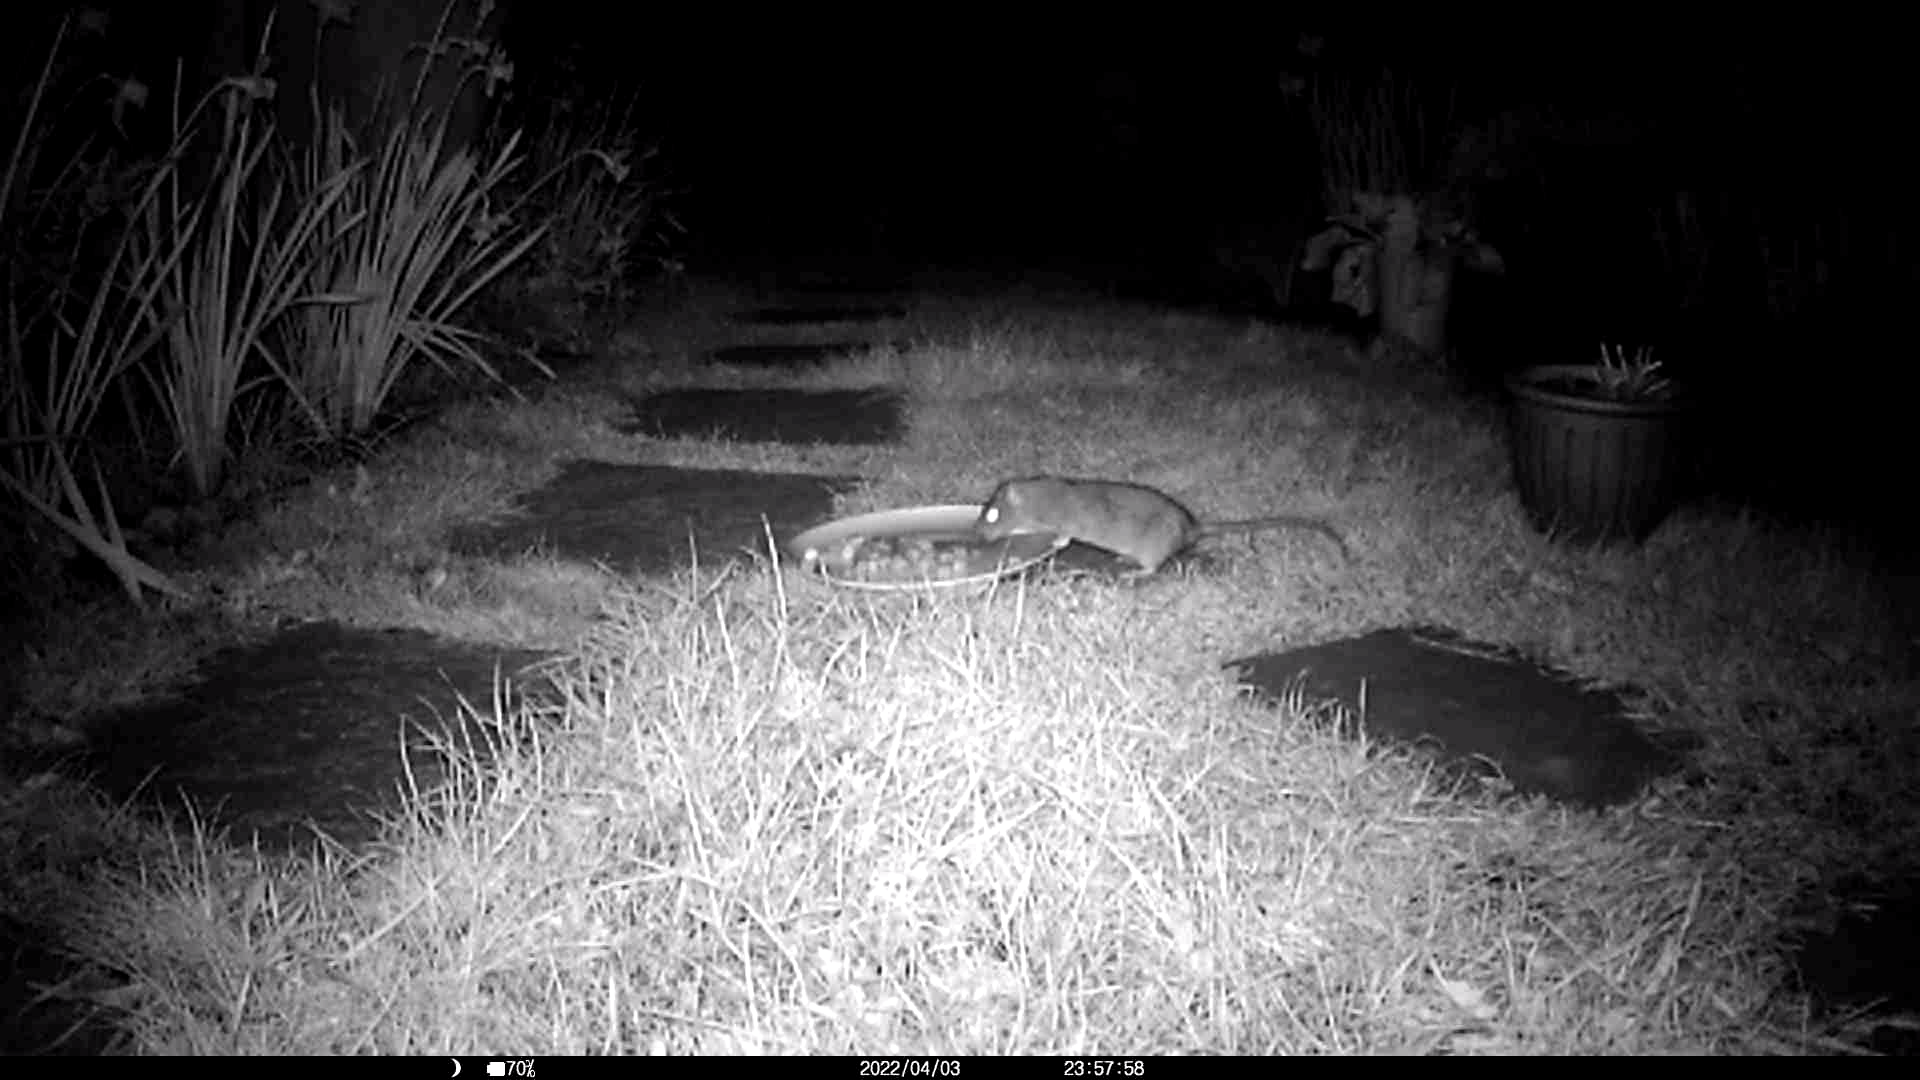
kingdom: Animalia
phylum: Chordata
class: Mammalia
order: Rodentia
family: Muridae
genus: Rattus
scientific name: Rattus norvegicus
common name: Brown rat
